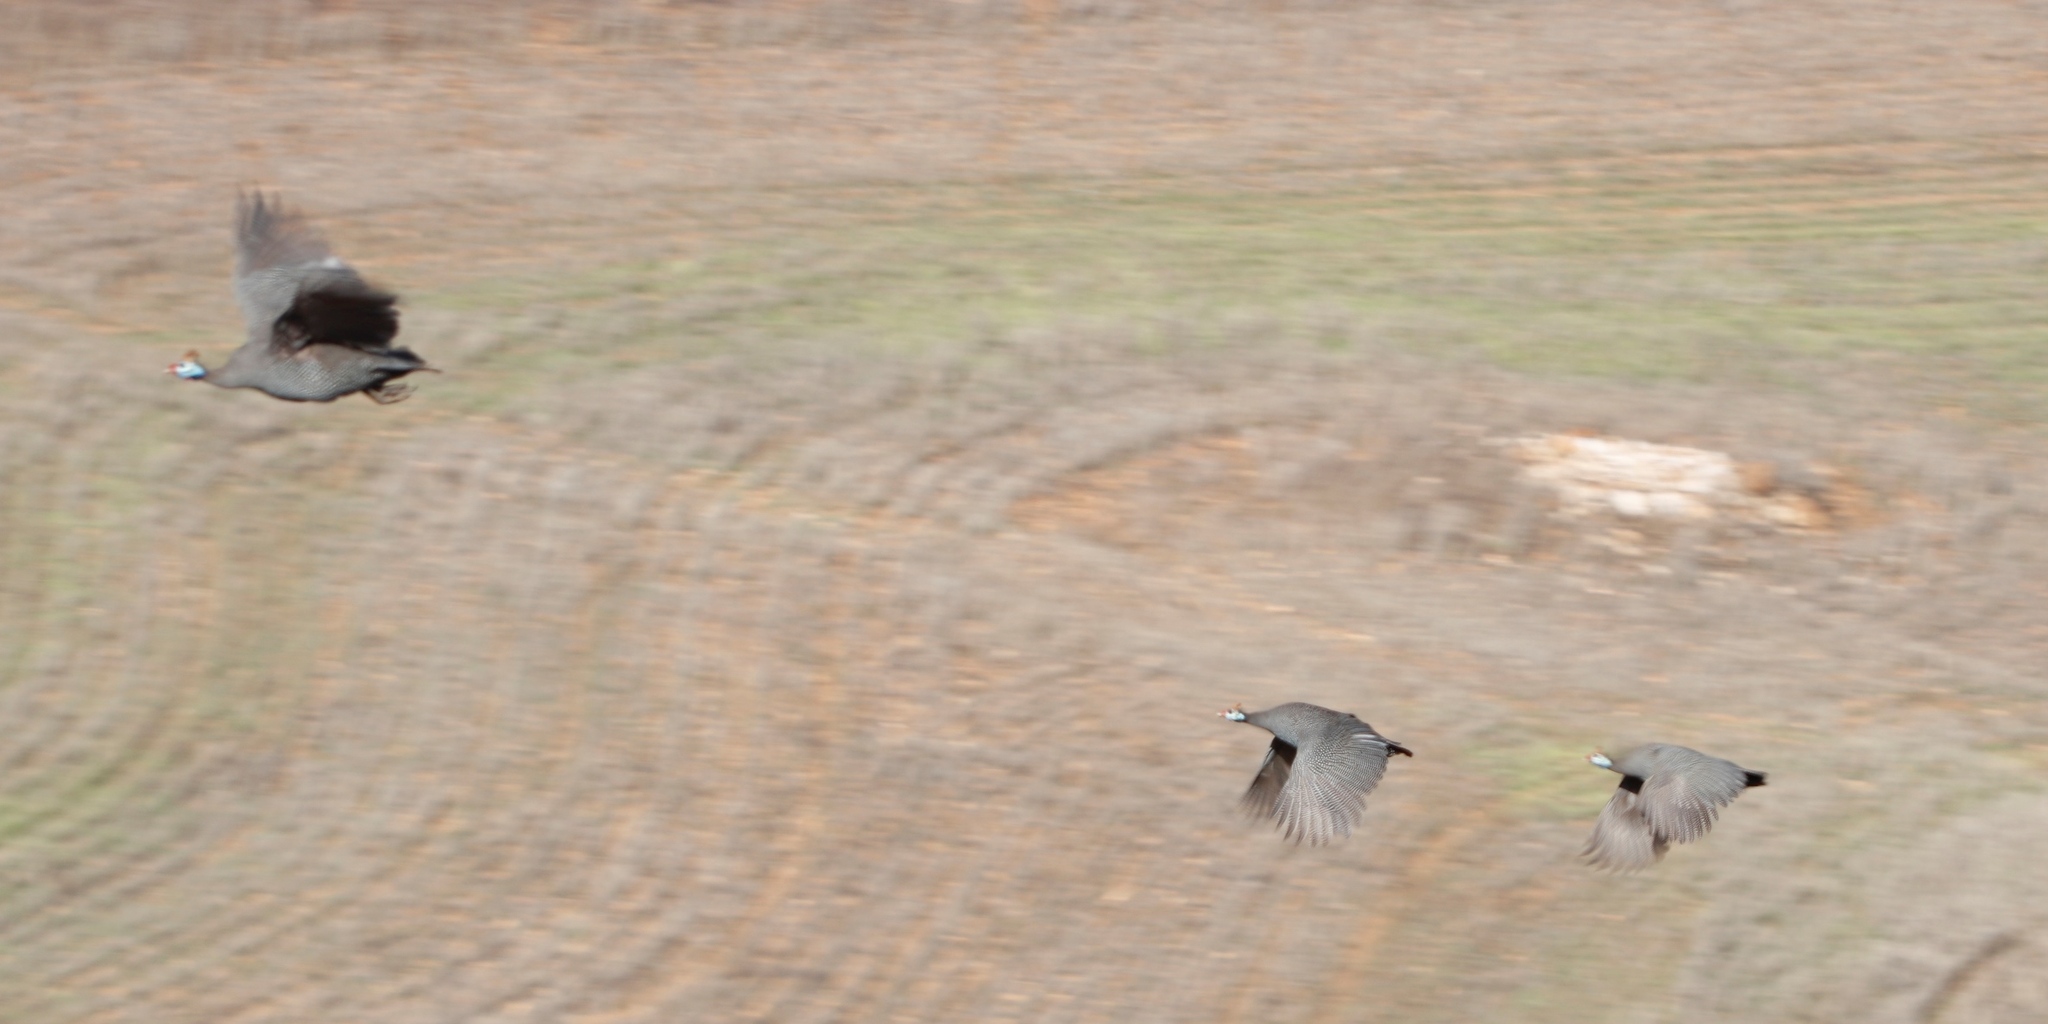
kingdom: Animalia
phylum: Chordata
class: Aves
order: Galliformes
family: Numididae
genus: Numida
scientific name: Numida meleagris
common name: Helmeted guineafowl
